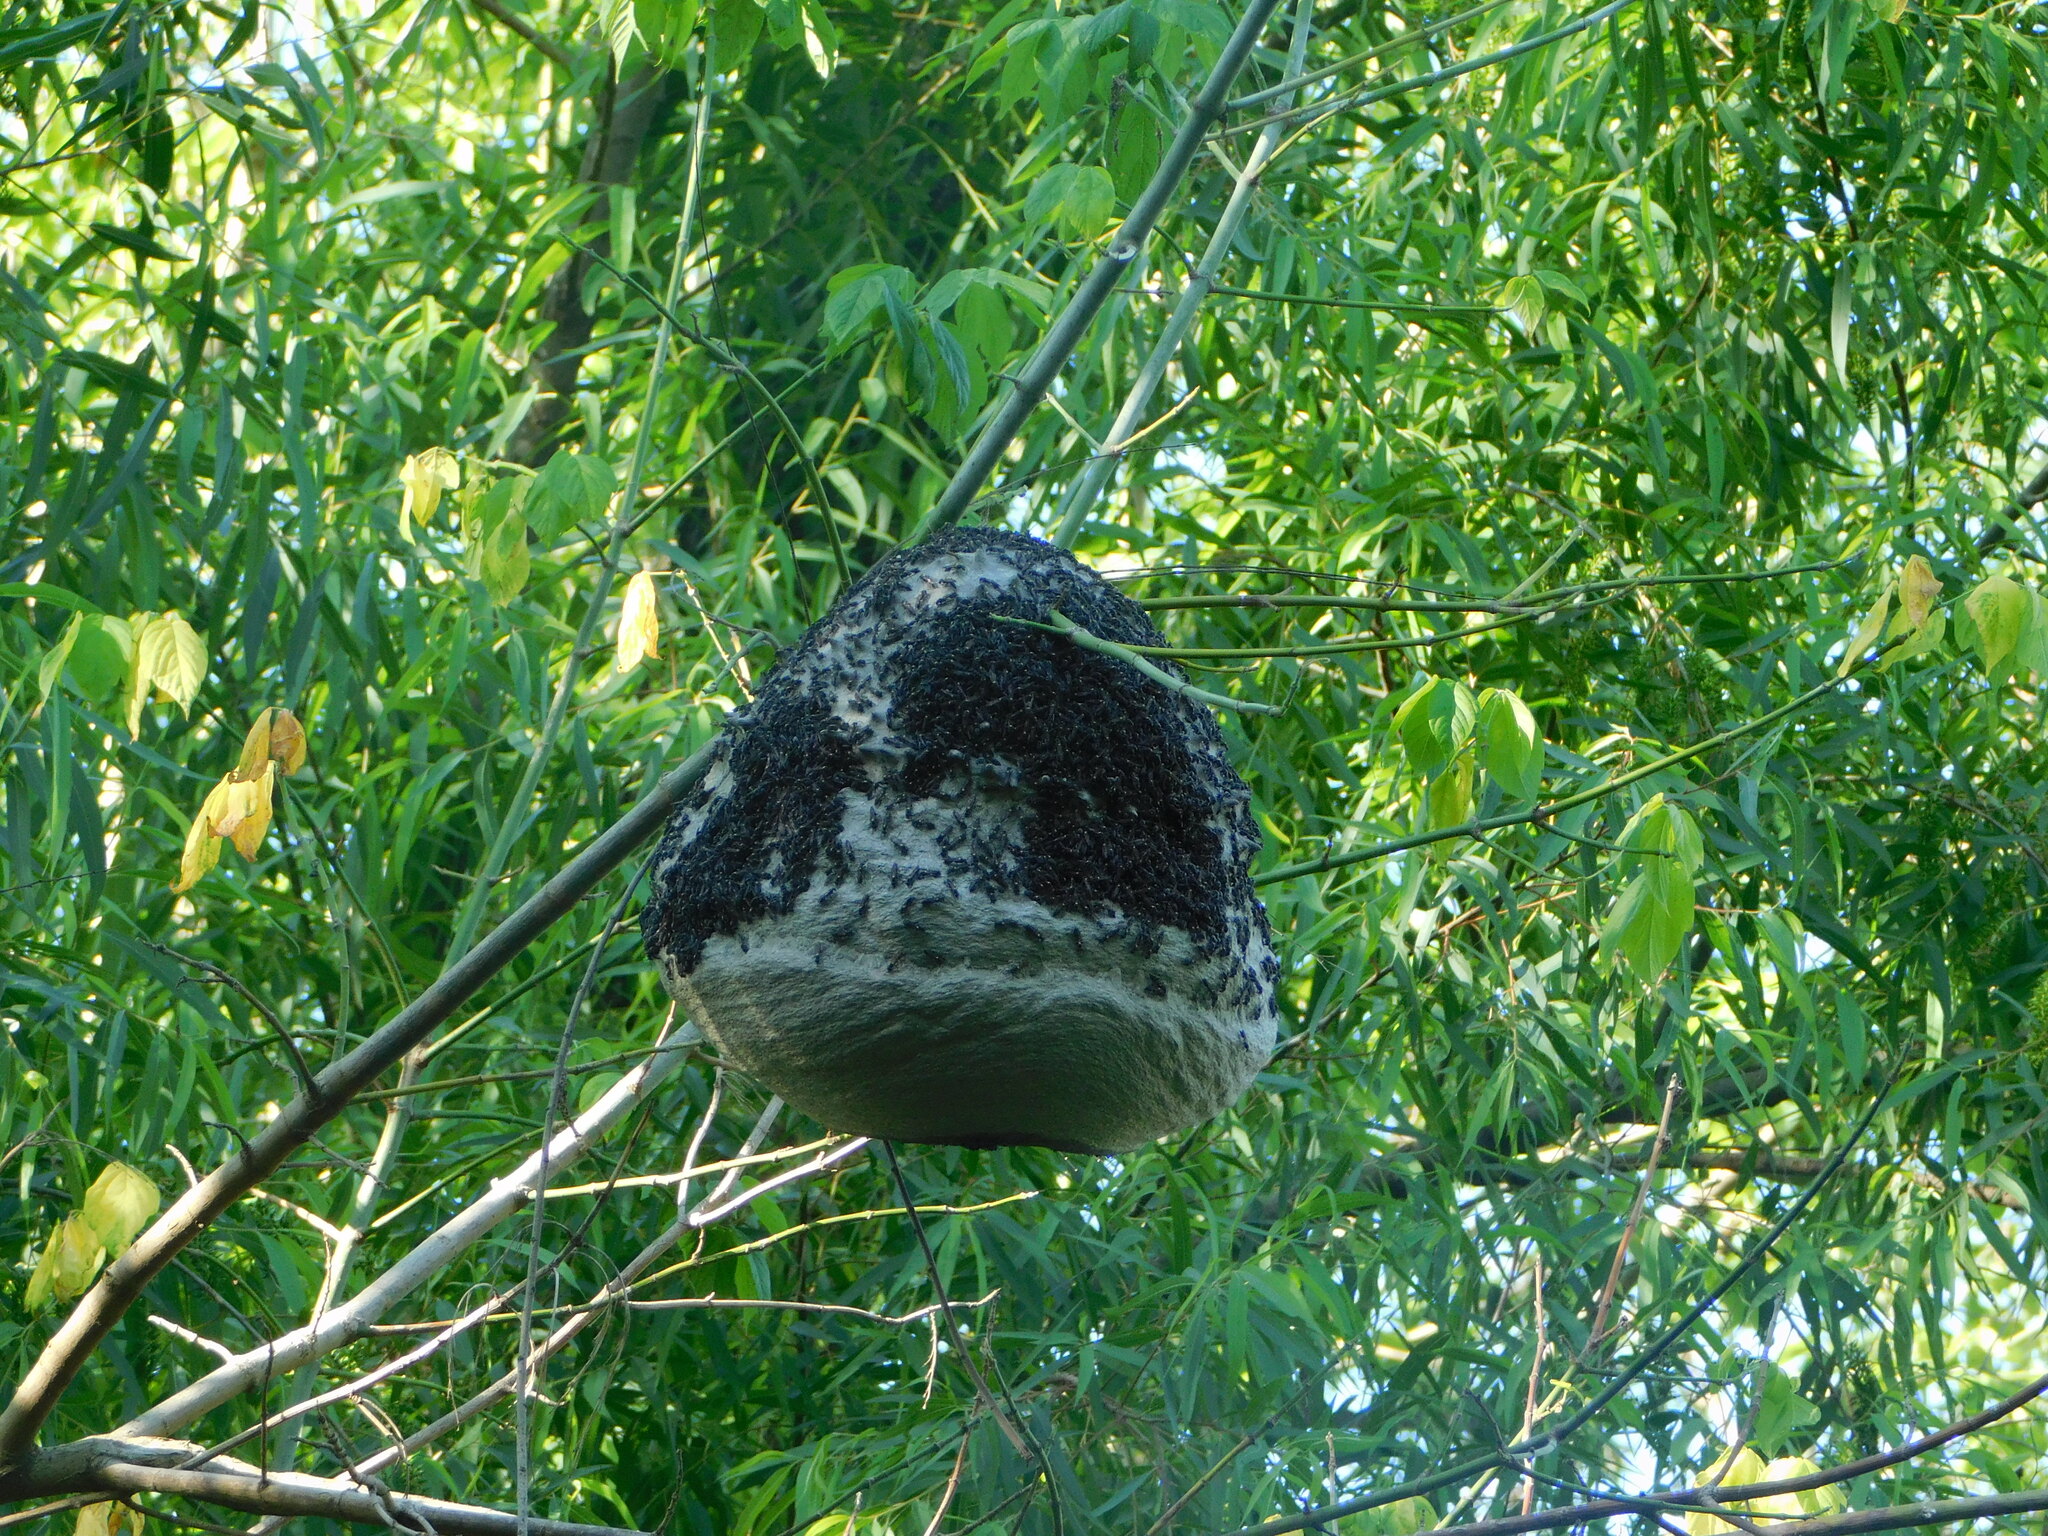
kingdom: Animalia
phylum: Arthropoda
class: Insecta
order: Hymenoptera
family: Eumenidae
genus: Polybia
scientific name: Polybia scutellaris
